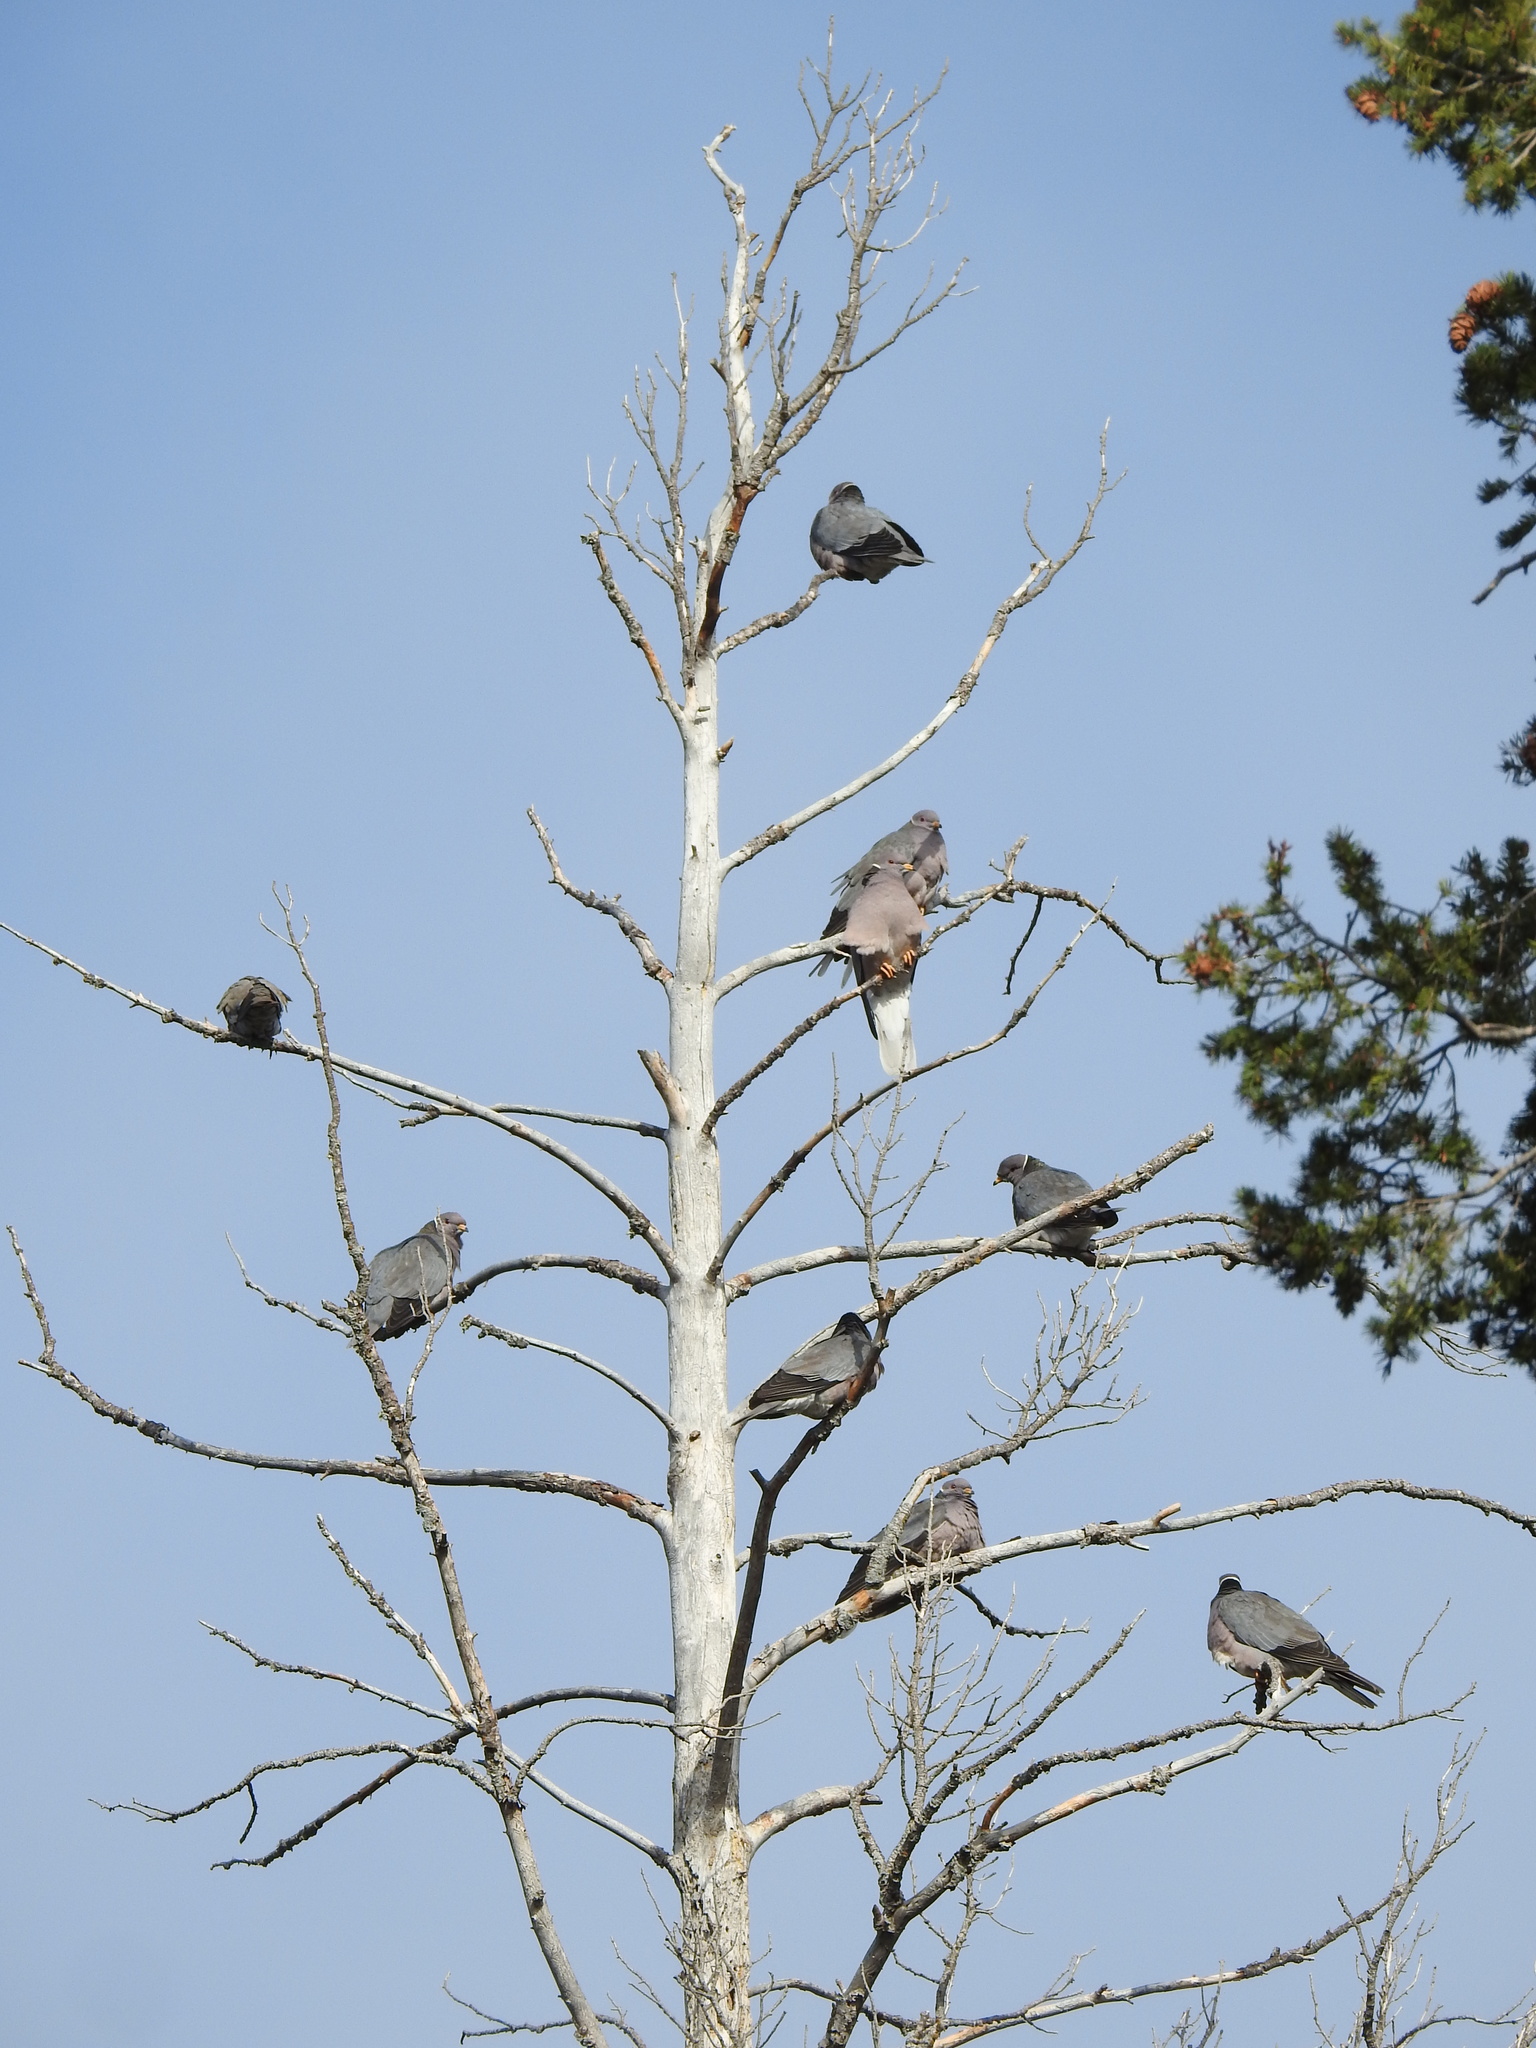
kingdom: Animalia
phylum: Chordata
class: Aves
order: Columbiformes
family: Columbidae
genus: Patagioenas
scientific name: Patagioenas fasciata
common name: Band-tailed pigeon
